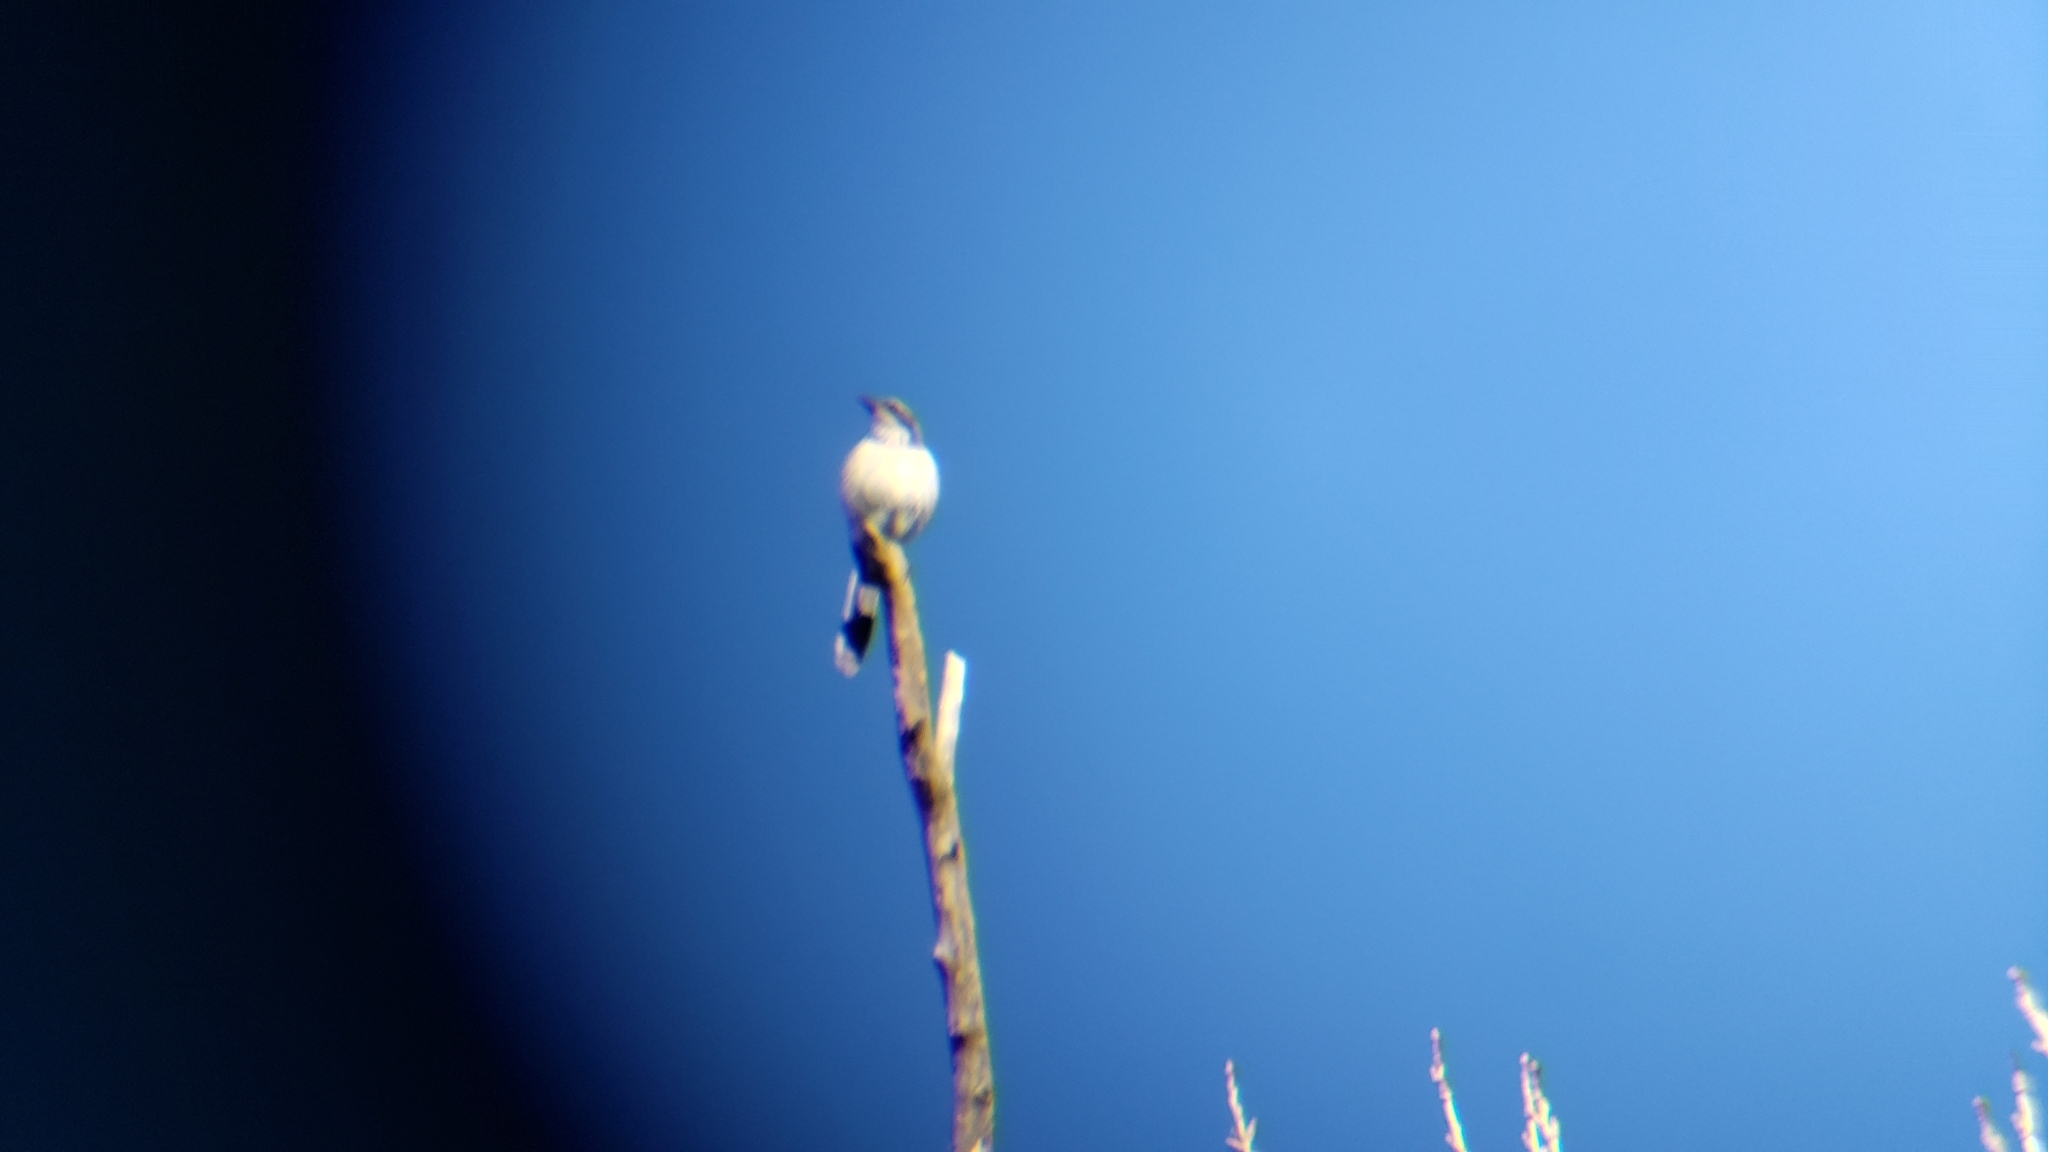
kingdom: Animalia
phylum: Chordata
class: Aves
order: Passeriformes
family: Mimidae
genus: Mimus
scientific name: Mimus polyglottos
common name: Northern mockingbird
